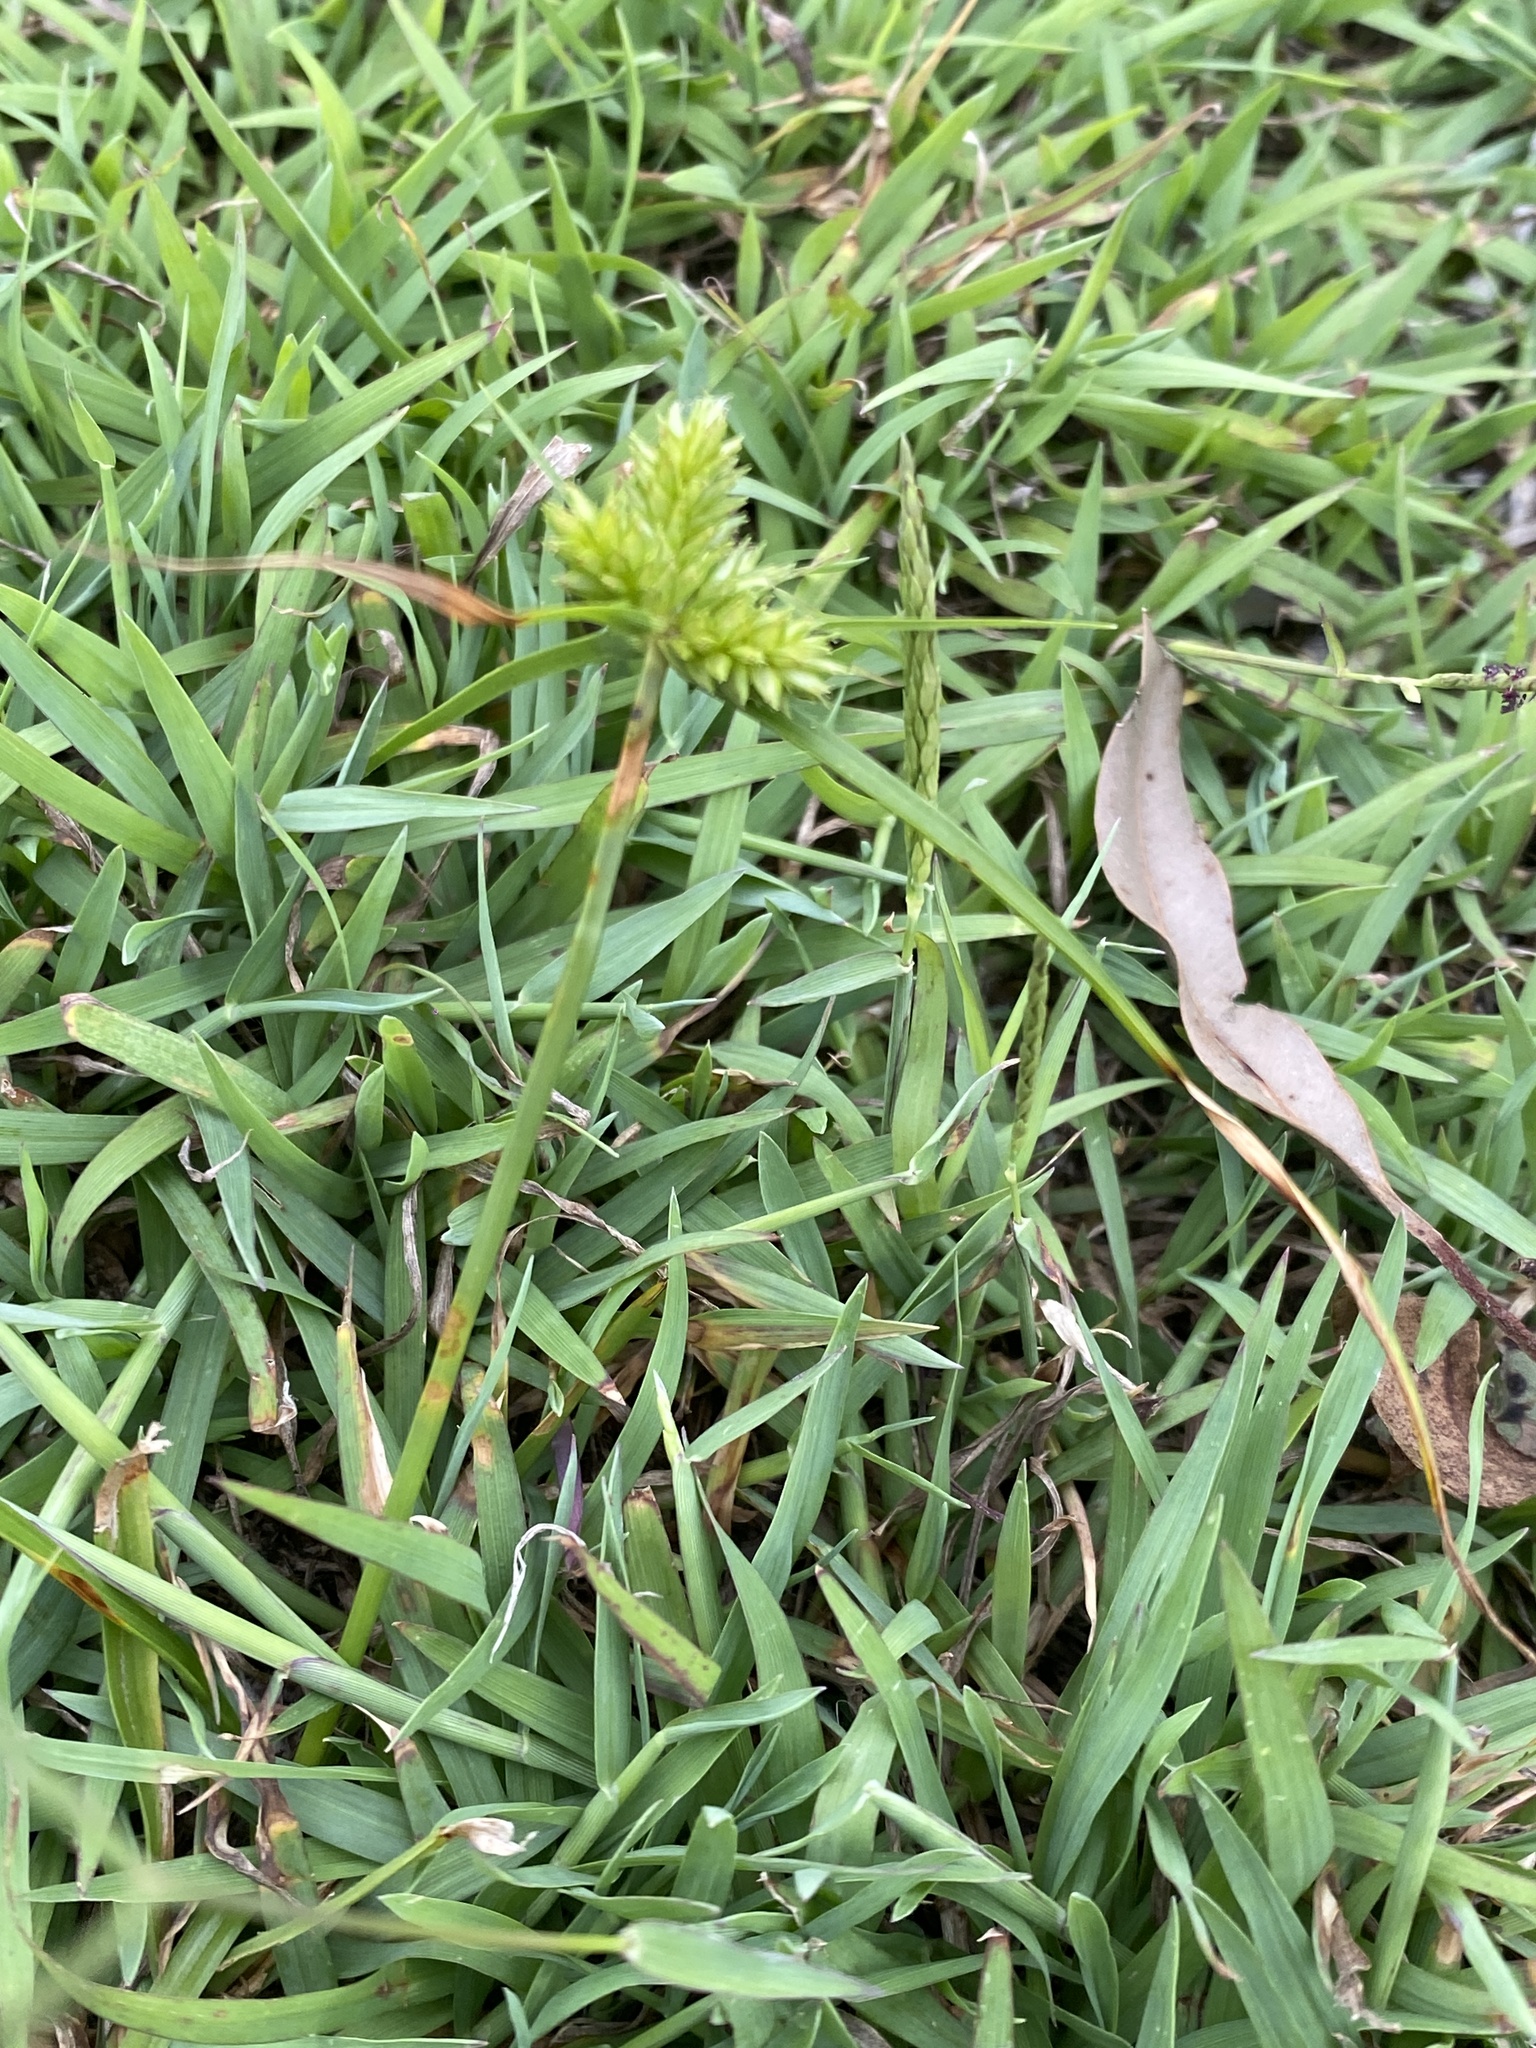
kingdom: Plantae
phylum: Tracheophyta
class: Liliopsida
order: Poales
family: Cyperaceae
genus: Cyperus
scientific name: Cyperus aggregatus
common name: Inflatedscale flatsedge
